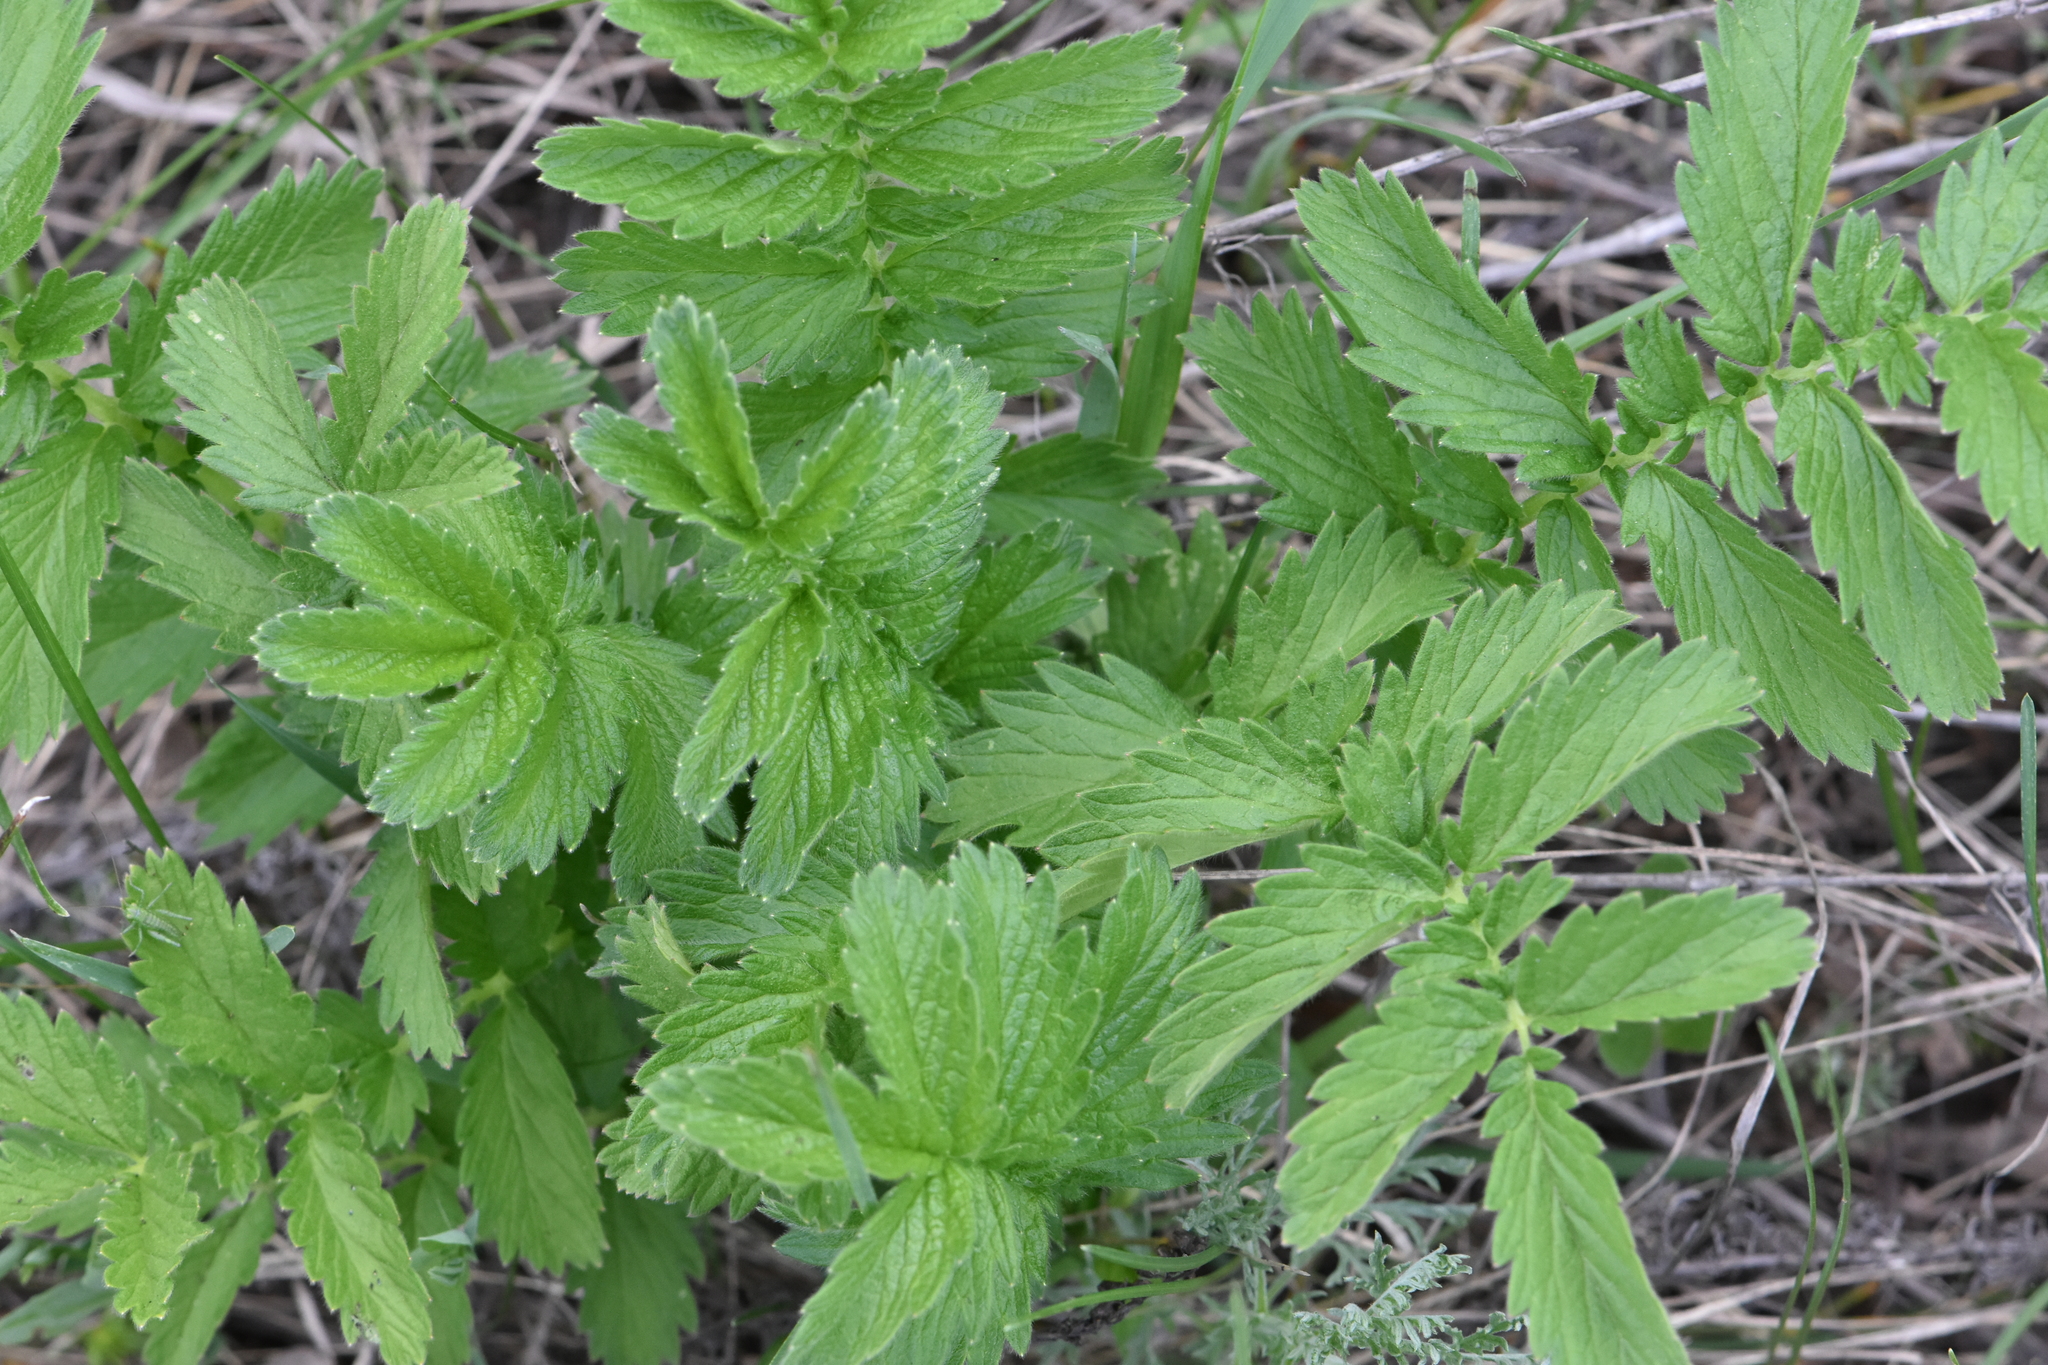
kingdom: Plantae
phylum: Tracheophyta
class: Magnoliopsida
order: Rosales
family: Rosaceae
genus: Agrimonia
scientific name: Agrimonia eupatoria
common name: Agrimony
